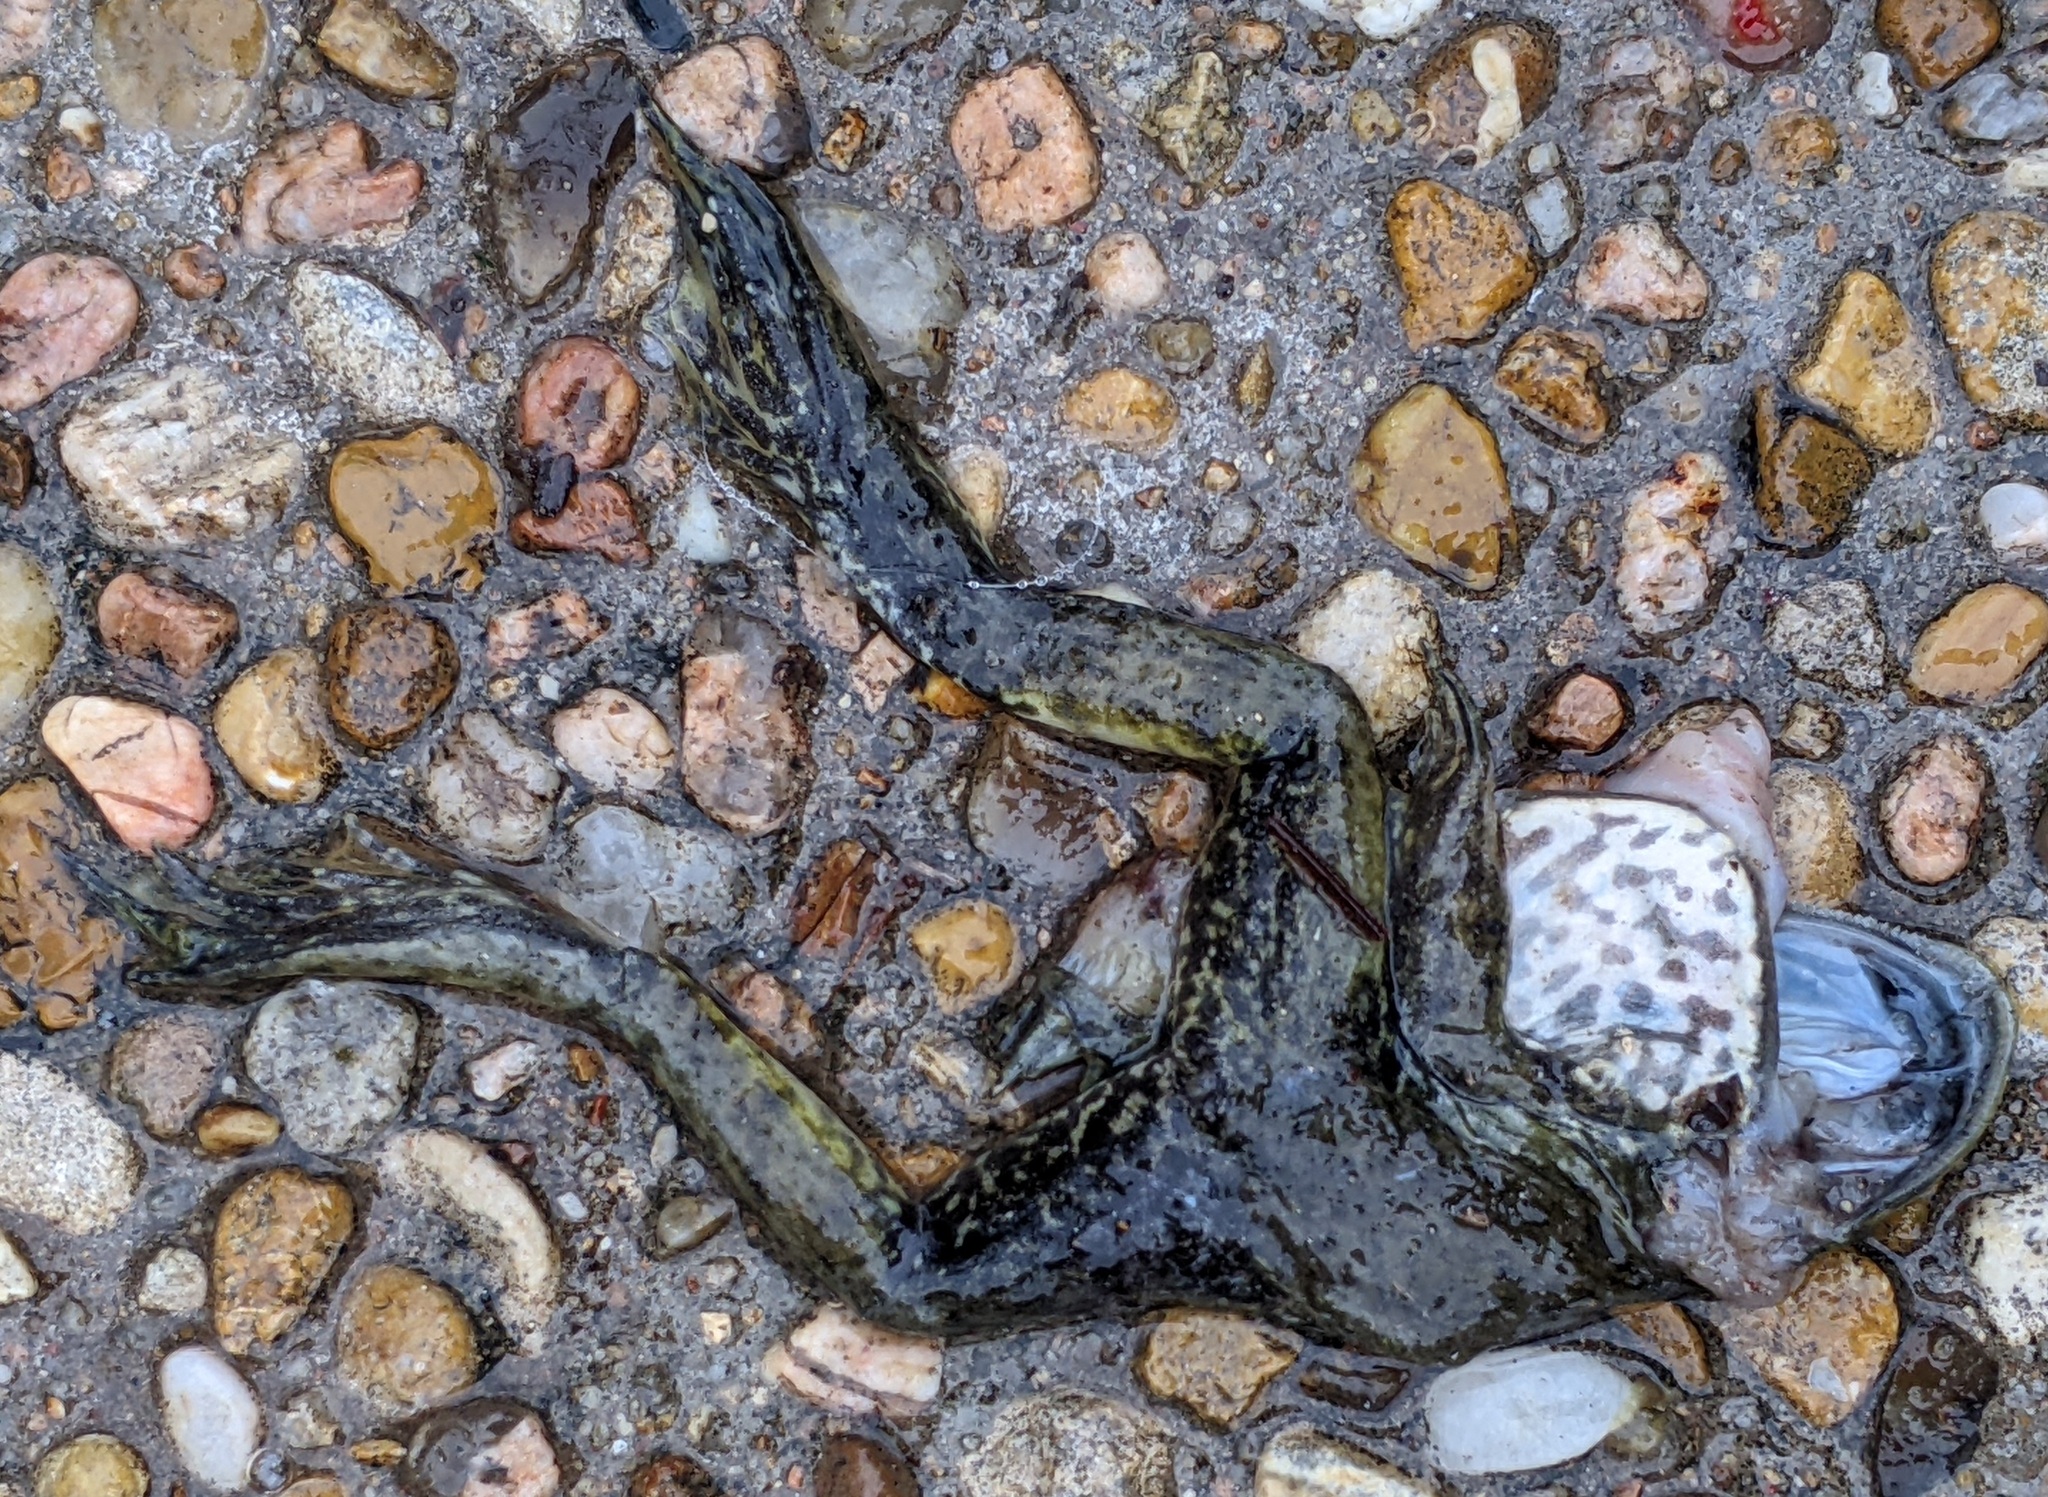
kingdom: Animalia
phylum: Chordata
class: Amphibia
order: Anura
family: Ranidae
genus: Lithobates
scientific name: Lithobates catesbeianus
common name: American bullfrog
